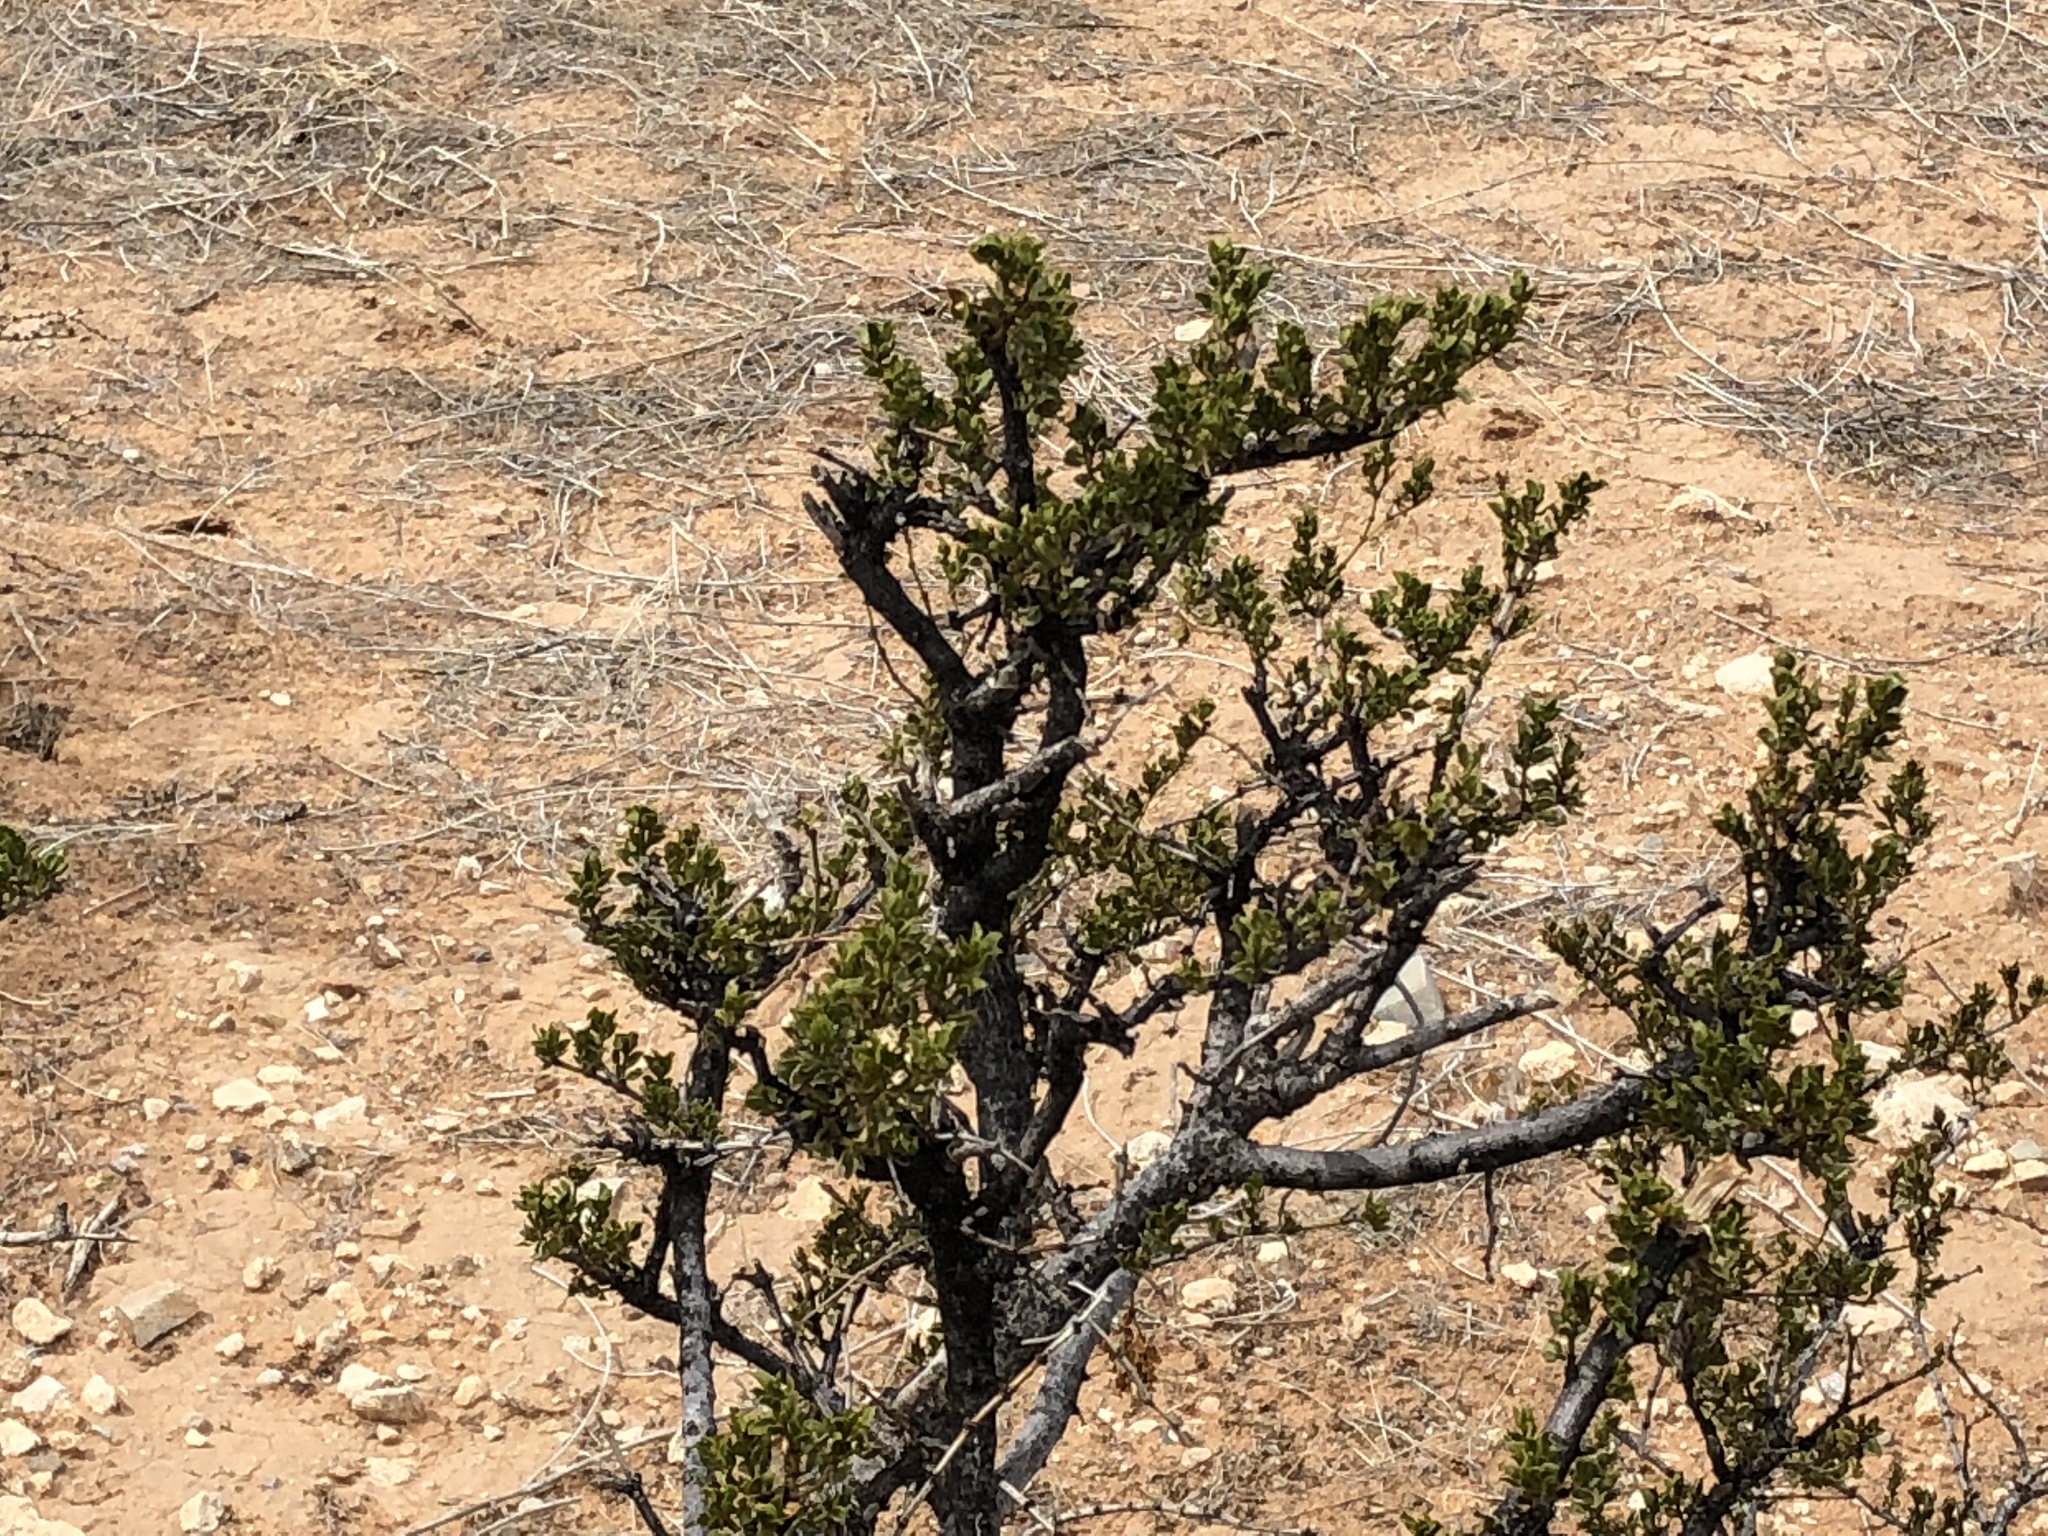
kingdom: Plantae
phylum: Tracheophyta
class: Magnoliopsida
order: Zygophyllales
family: Zygophyllaceae
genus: Larrea
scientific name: Larrea tridentata
